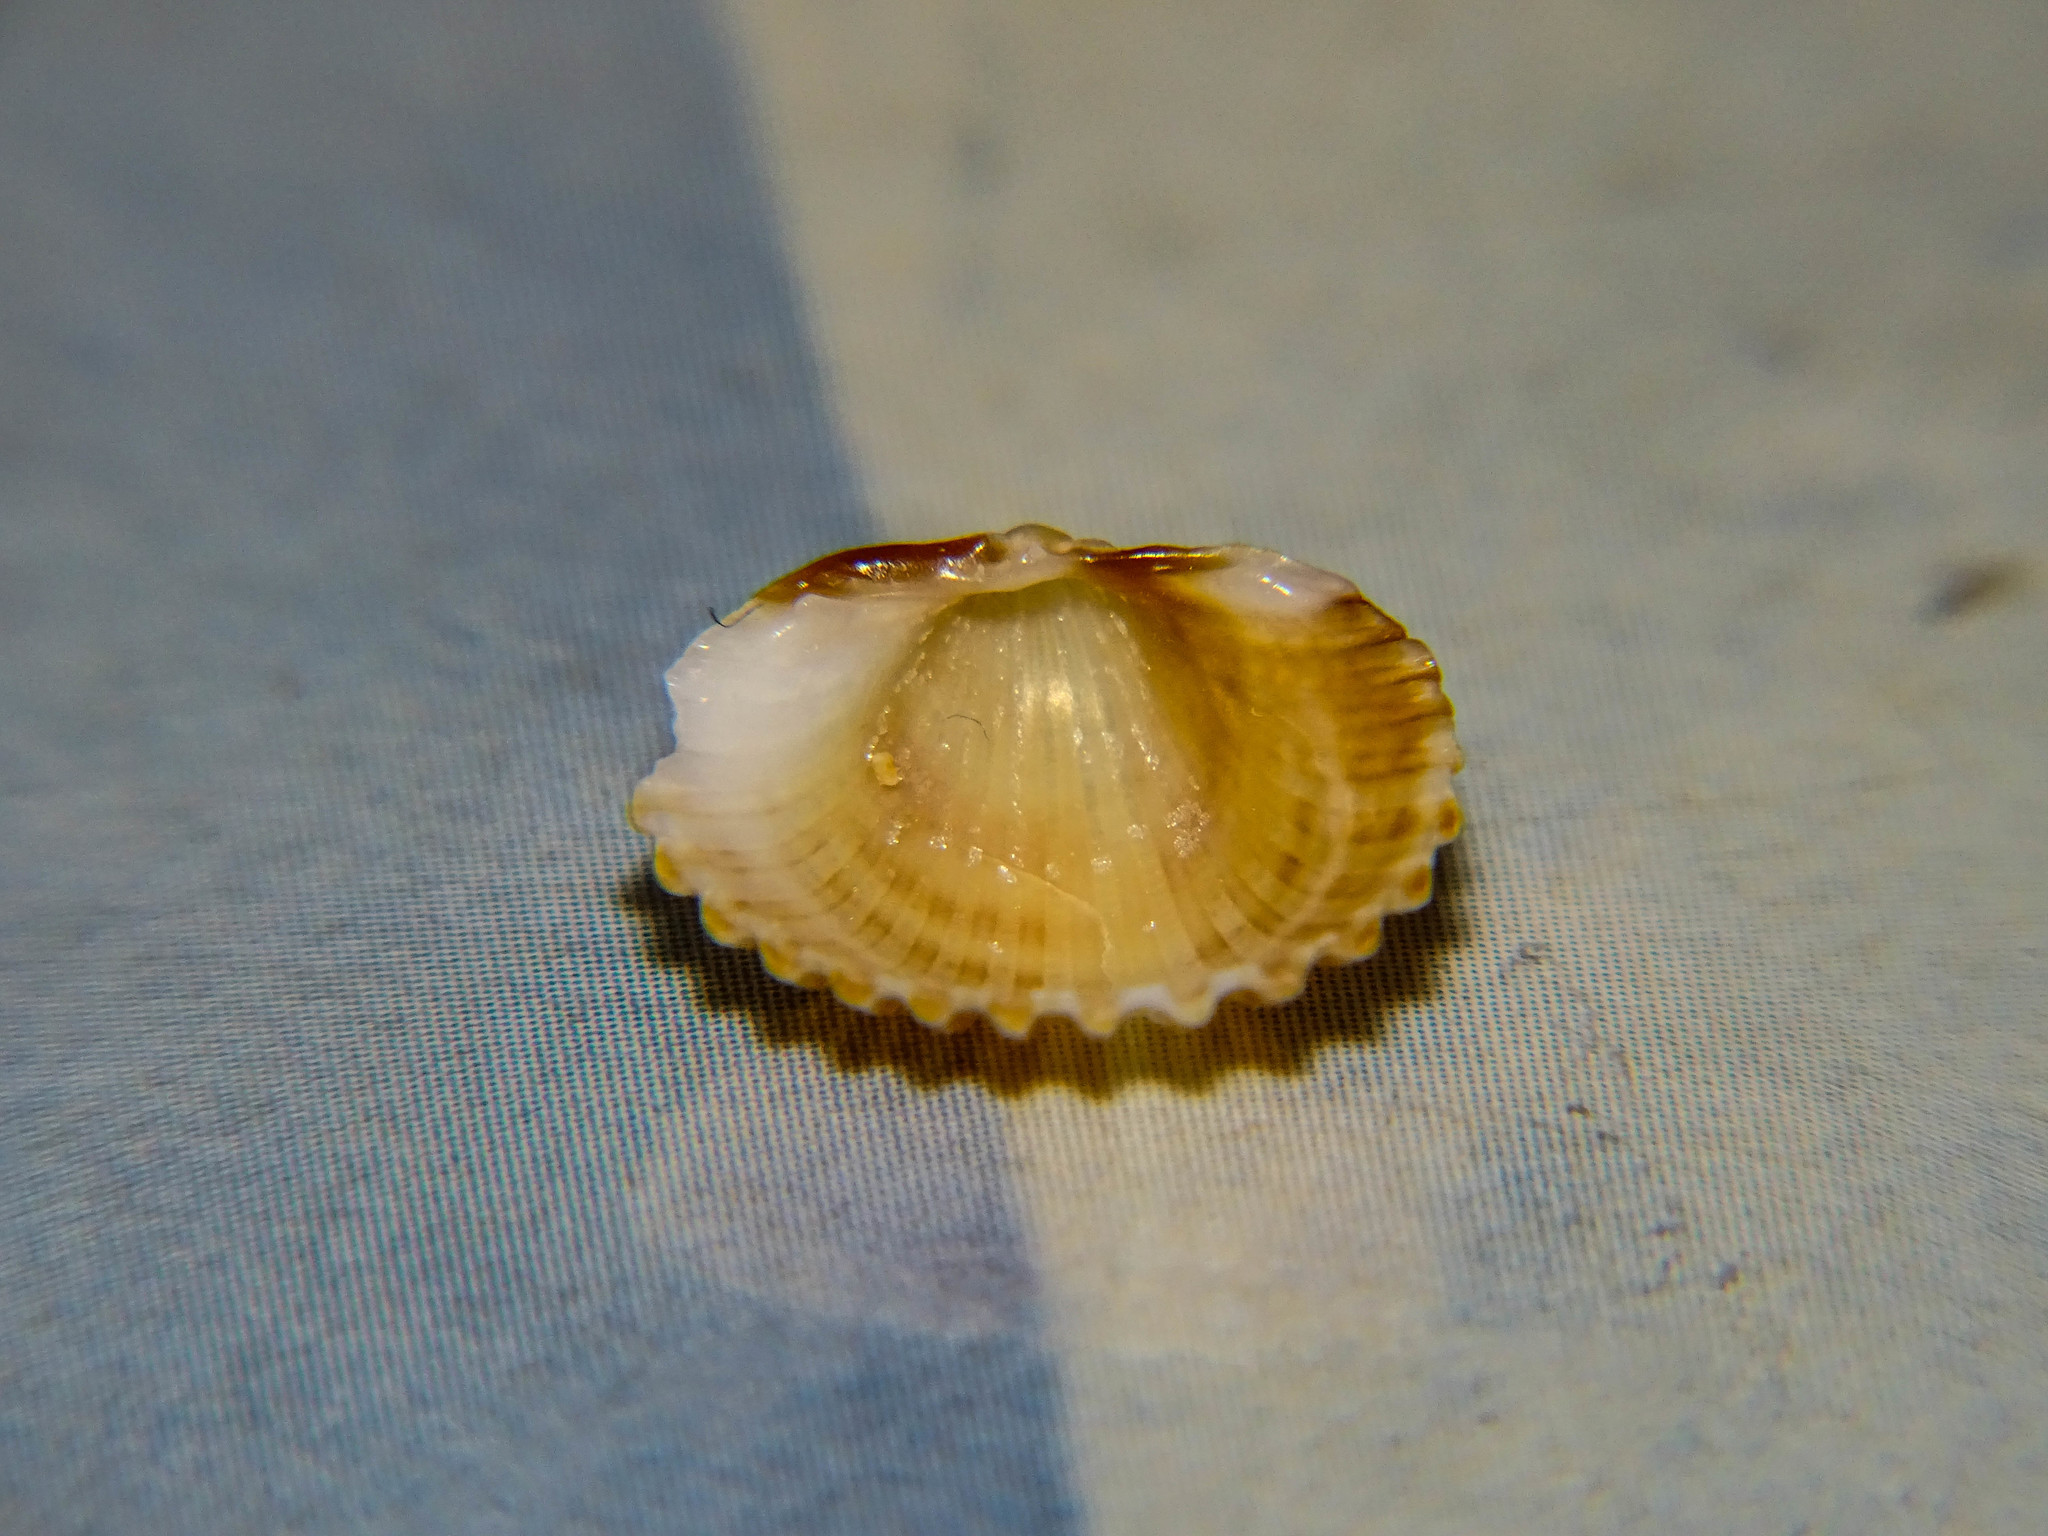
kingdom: Animalia
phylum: Mollusca
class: Bivalvia
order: Cardiida
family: Cardiidae
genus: Acanthocardia
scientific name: Acanthocardia tuberculata
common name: Rough cockle
